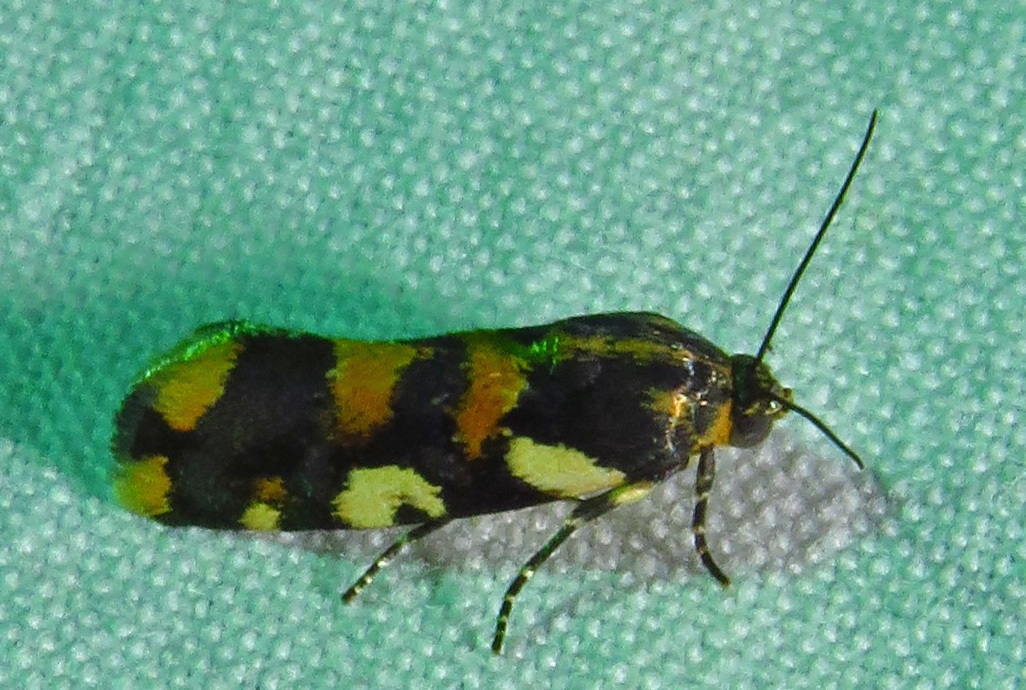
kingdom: Animalia
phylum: Arthropoda
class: Insecta
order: Lepidoptera
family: Noctuidae
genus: Acontia
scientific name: Acontia dama
